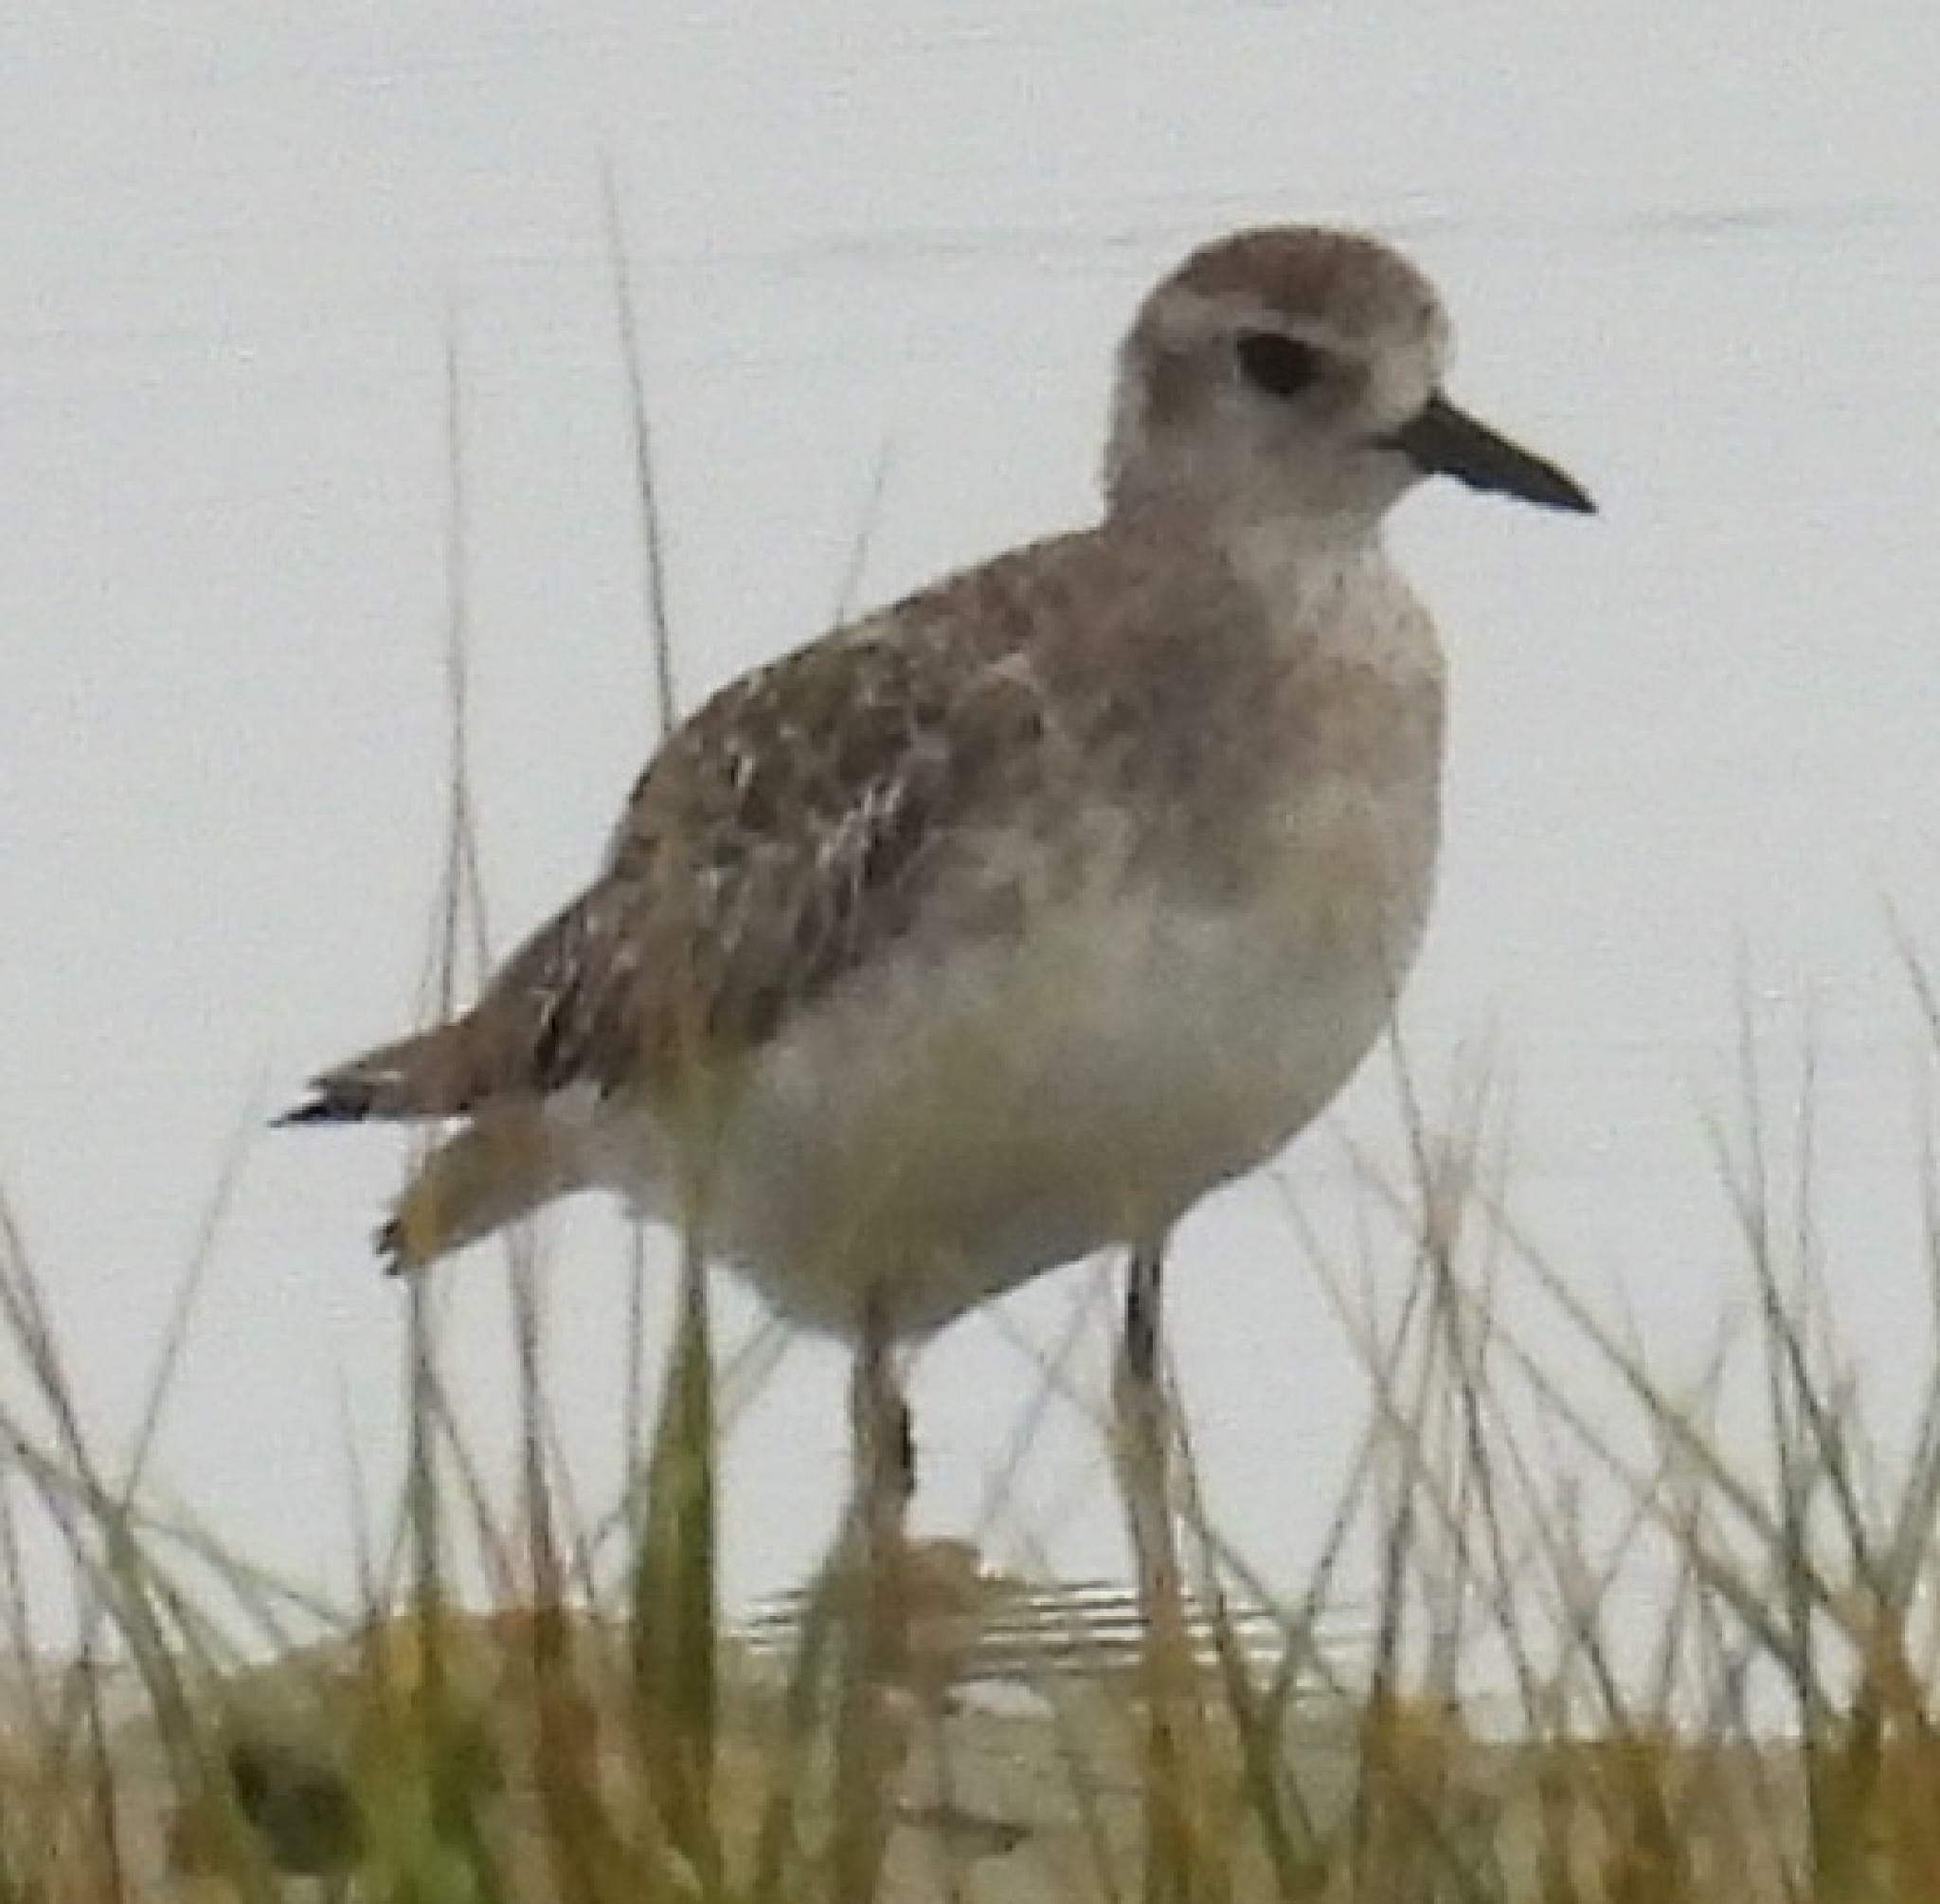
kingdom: Animalia
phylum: Chordata
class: Aves
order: Charadriiformes
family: Charadriidae
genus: Pluvialis
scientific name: Pluvialis squatarola
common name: Grey plover
